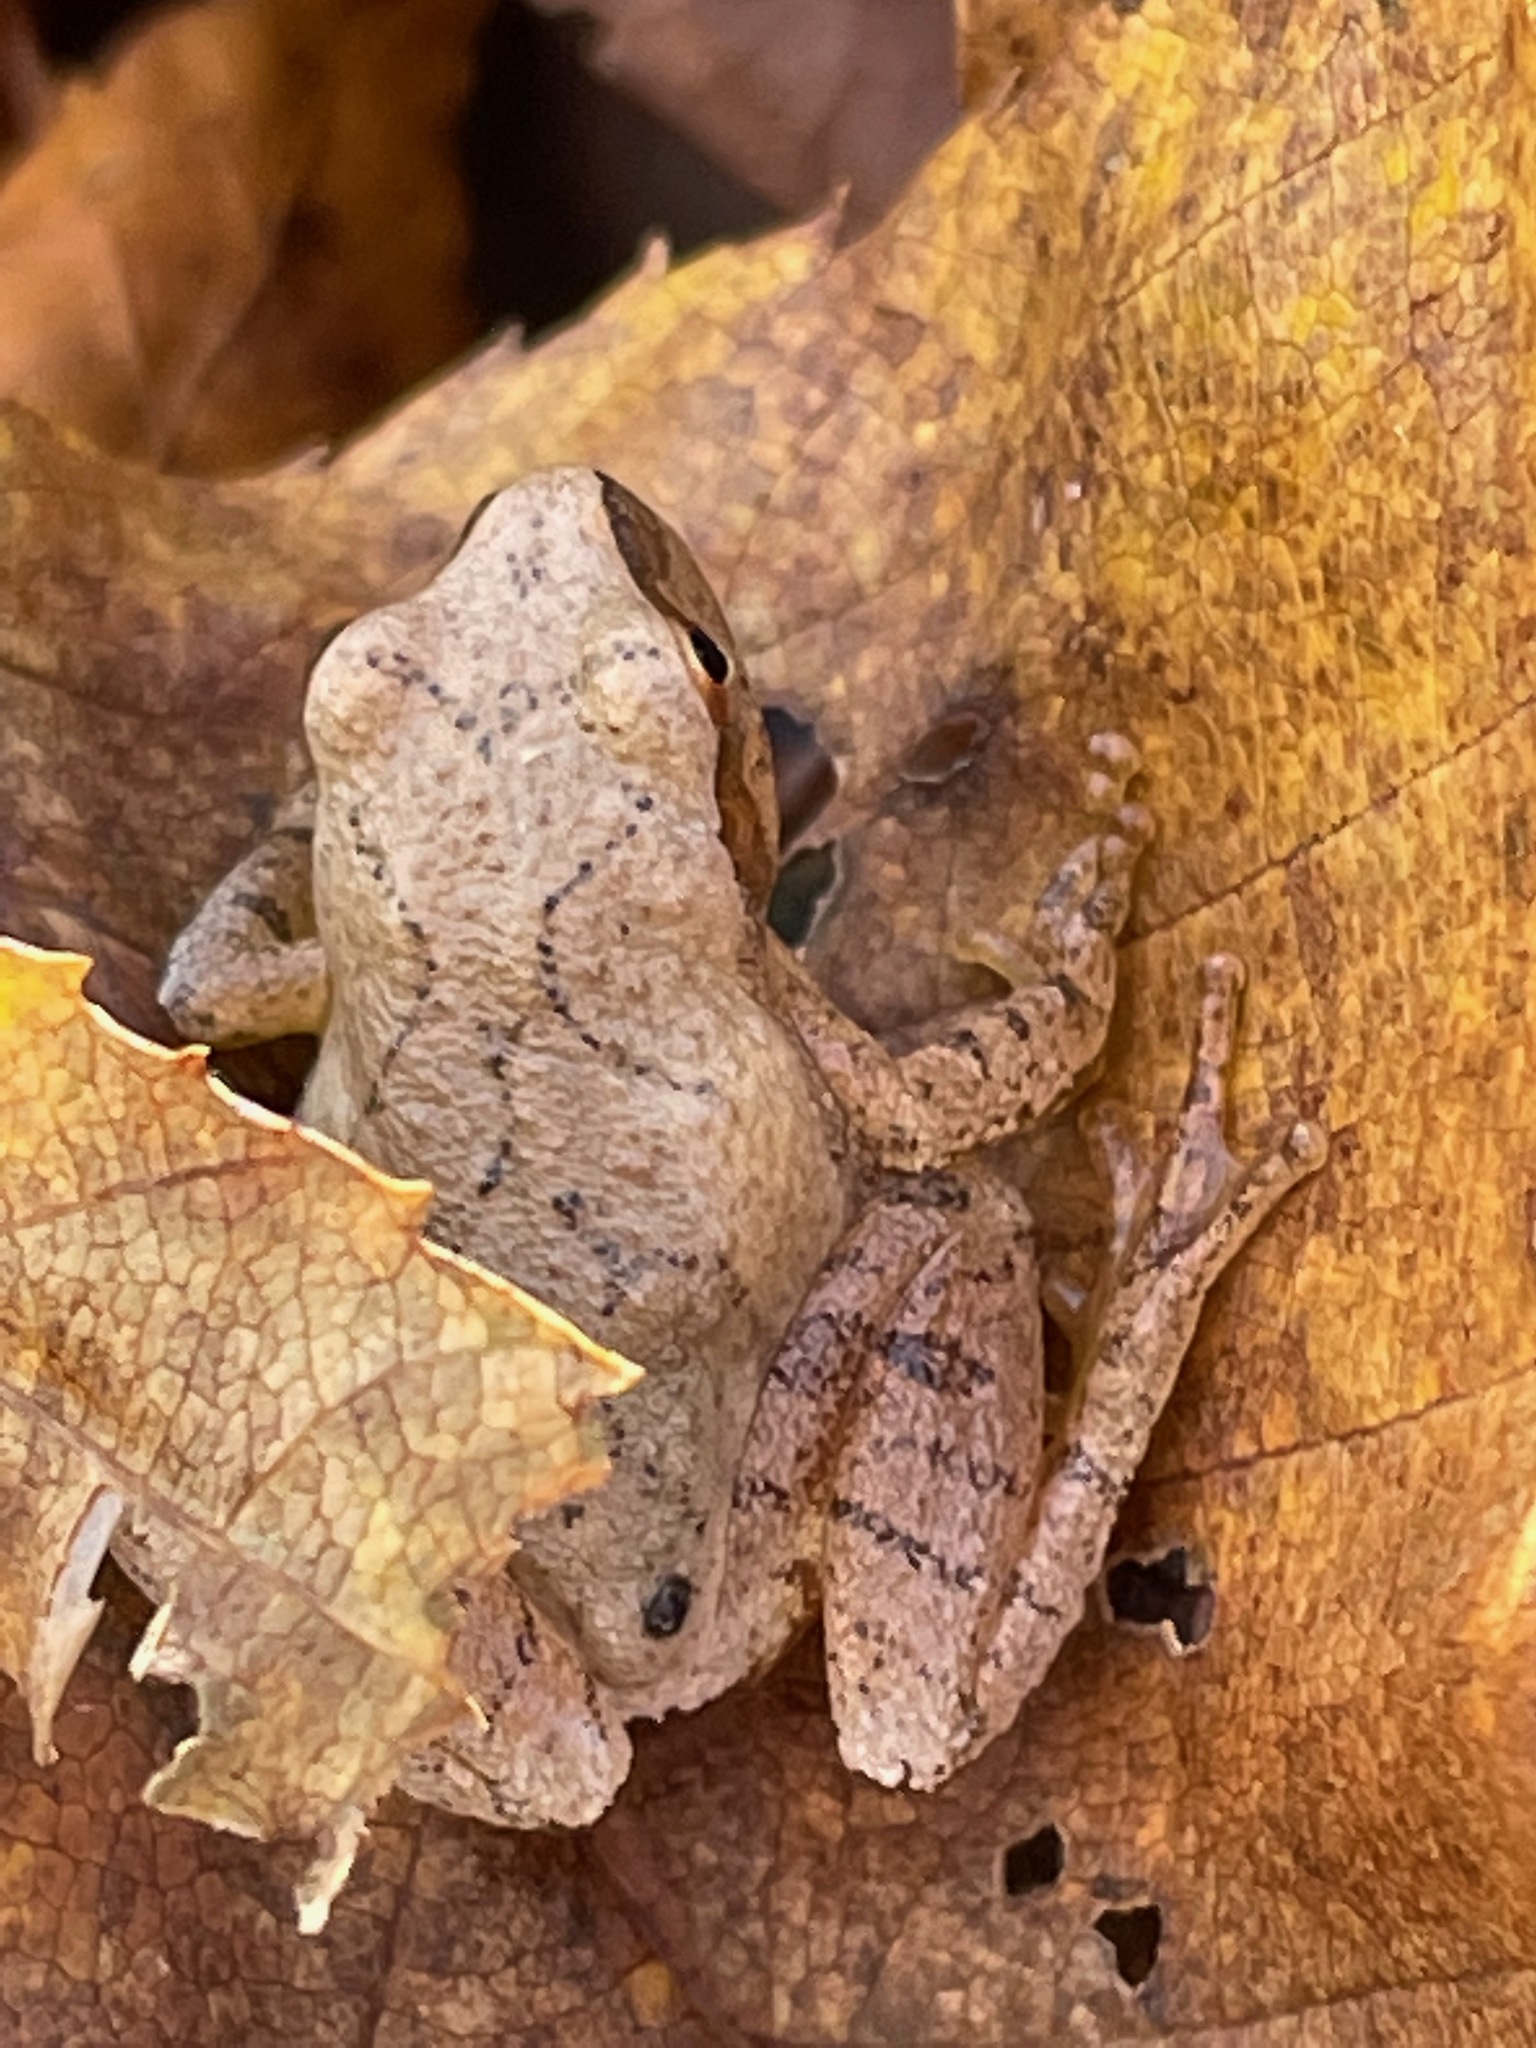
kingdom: Animalia
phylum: Chordata
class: Amphibia
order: Anura
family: Hylidae
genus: Pseudacris
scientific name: Pseudacris crucifer
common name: Spring peeper
